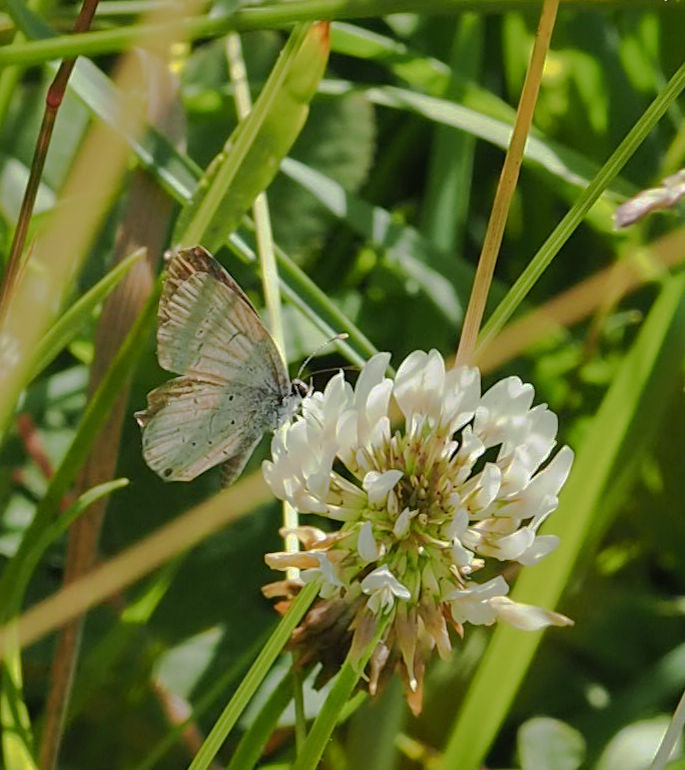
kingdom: Animalia
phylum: Arthropoda
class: Insecta
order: Lepidoptera
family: Lycaenidae
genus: Elkalyce
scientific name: Elkalyce comyntas
